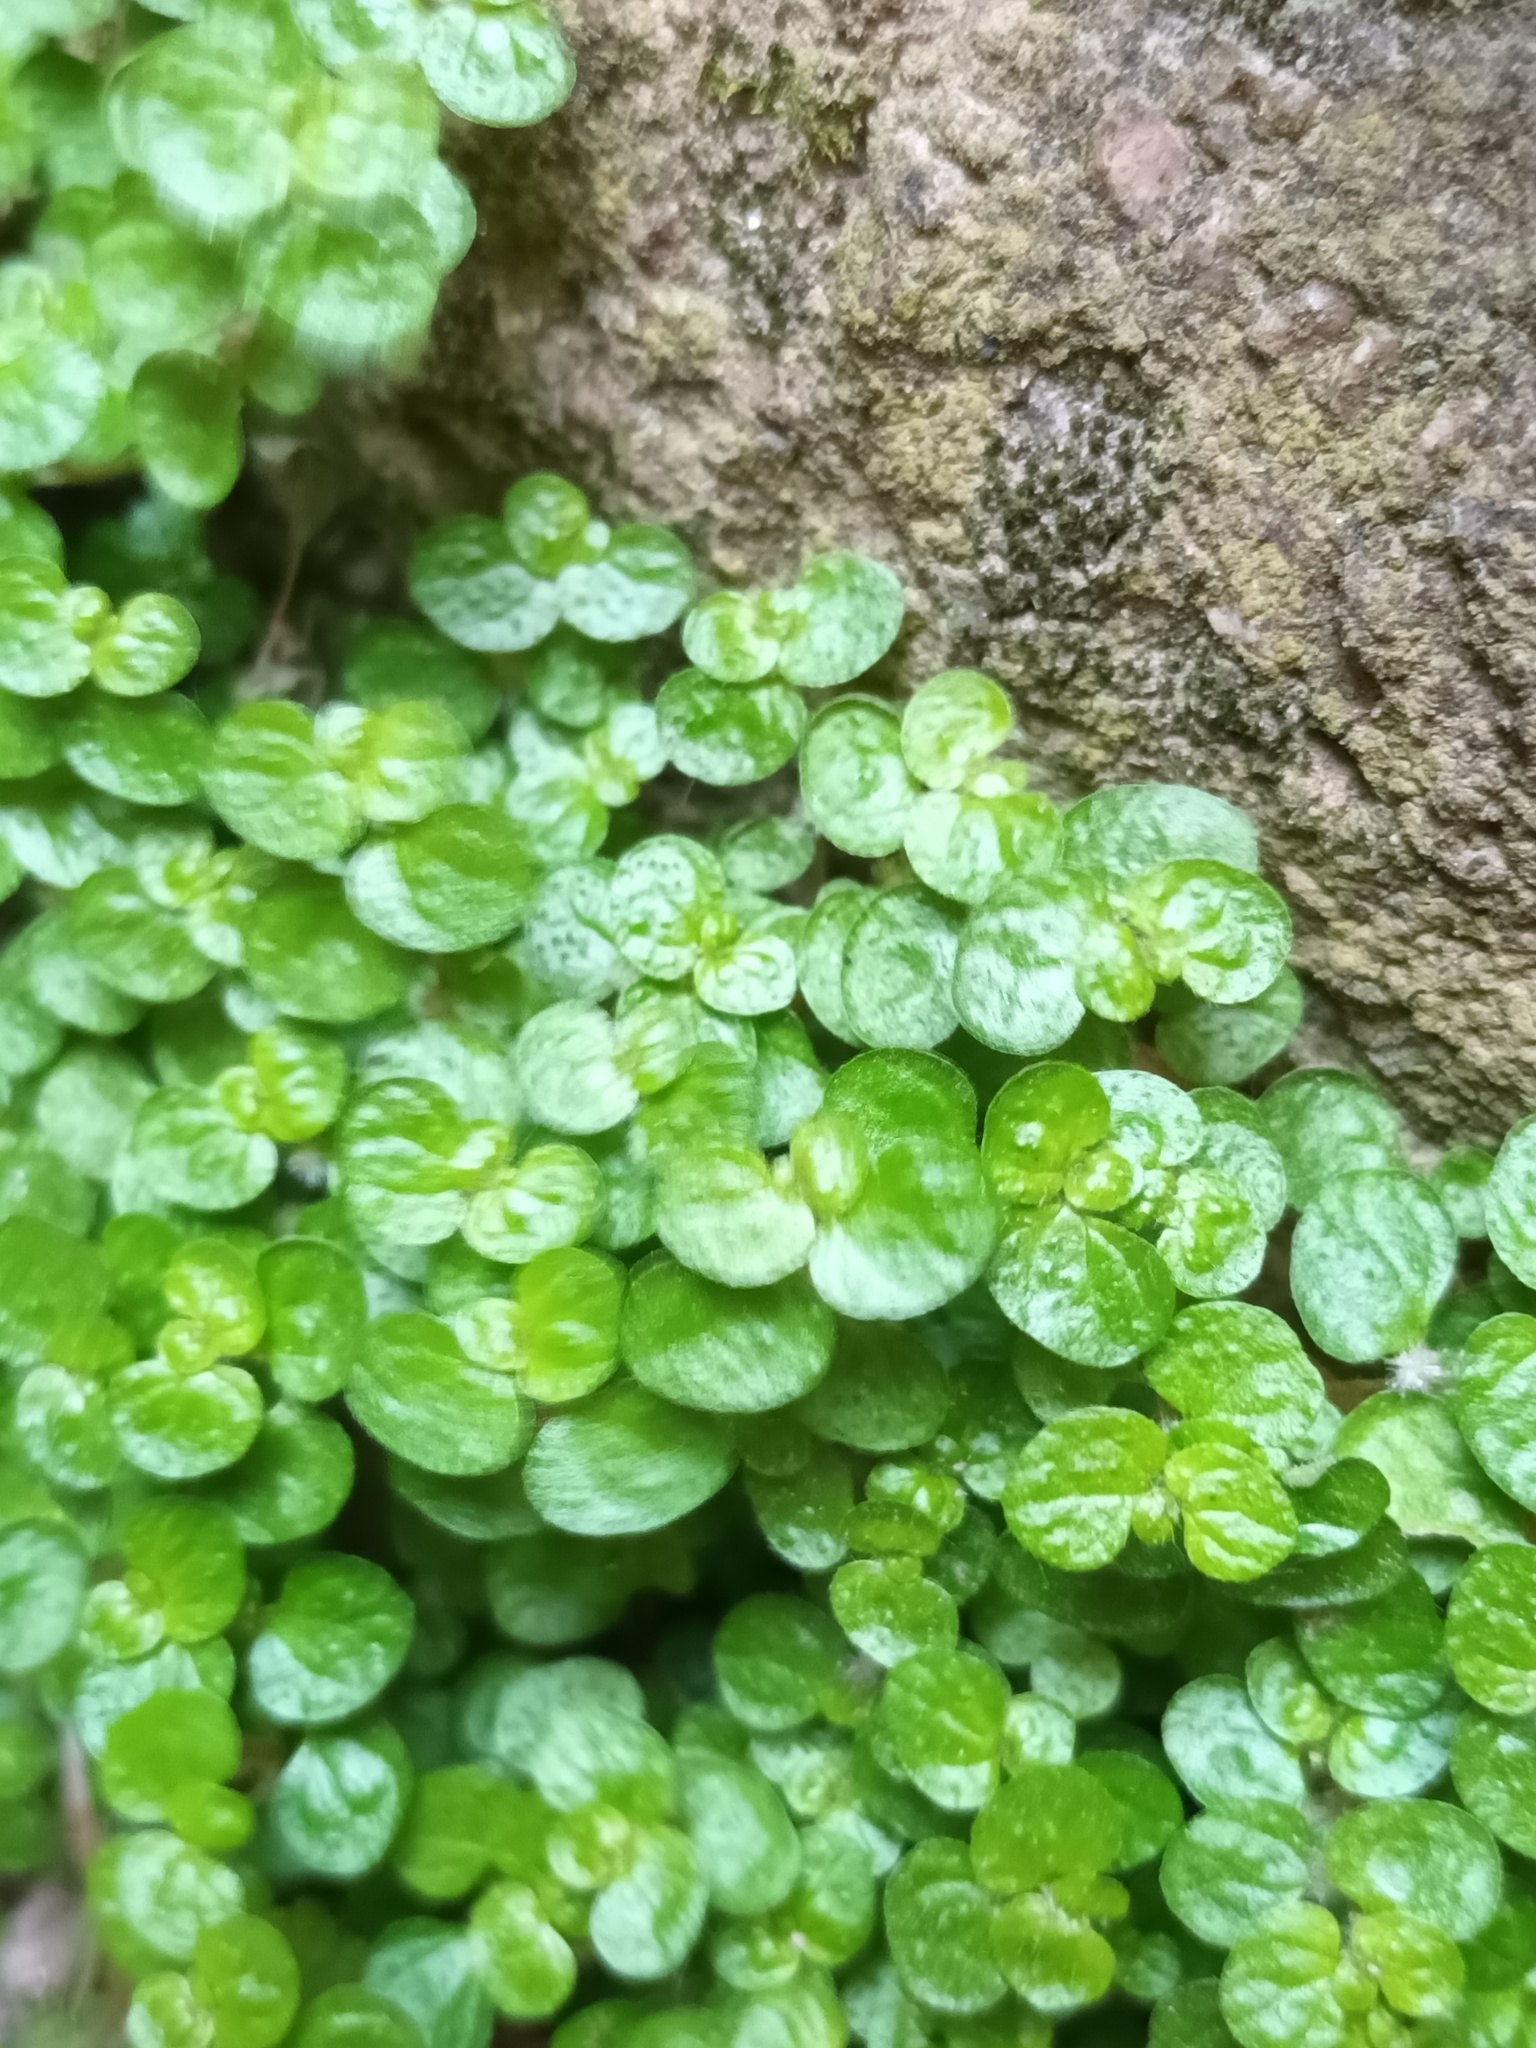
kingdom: Plantae
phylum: Tracheophyta
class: Magnoliopsida
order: Rosales
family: Urticaceae
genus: Soleirolia
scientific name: Soleirolia soleirolii
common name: Mind-your-own-business
